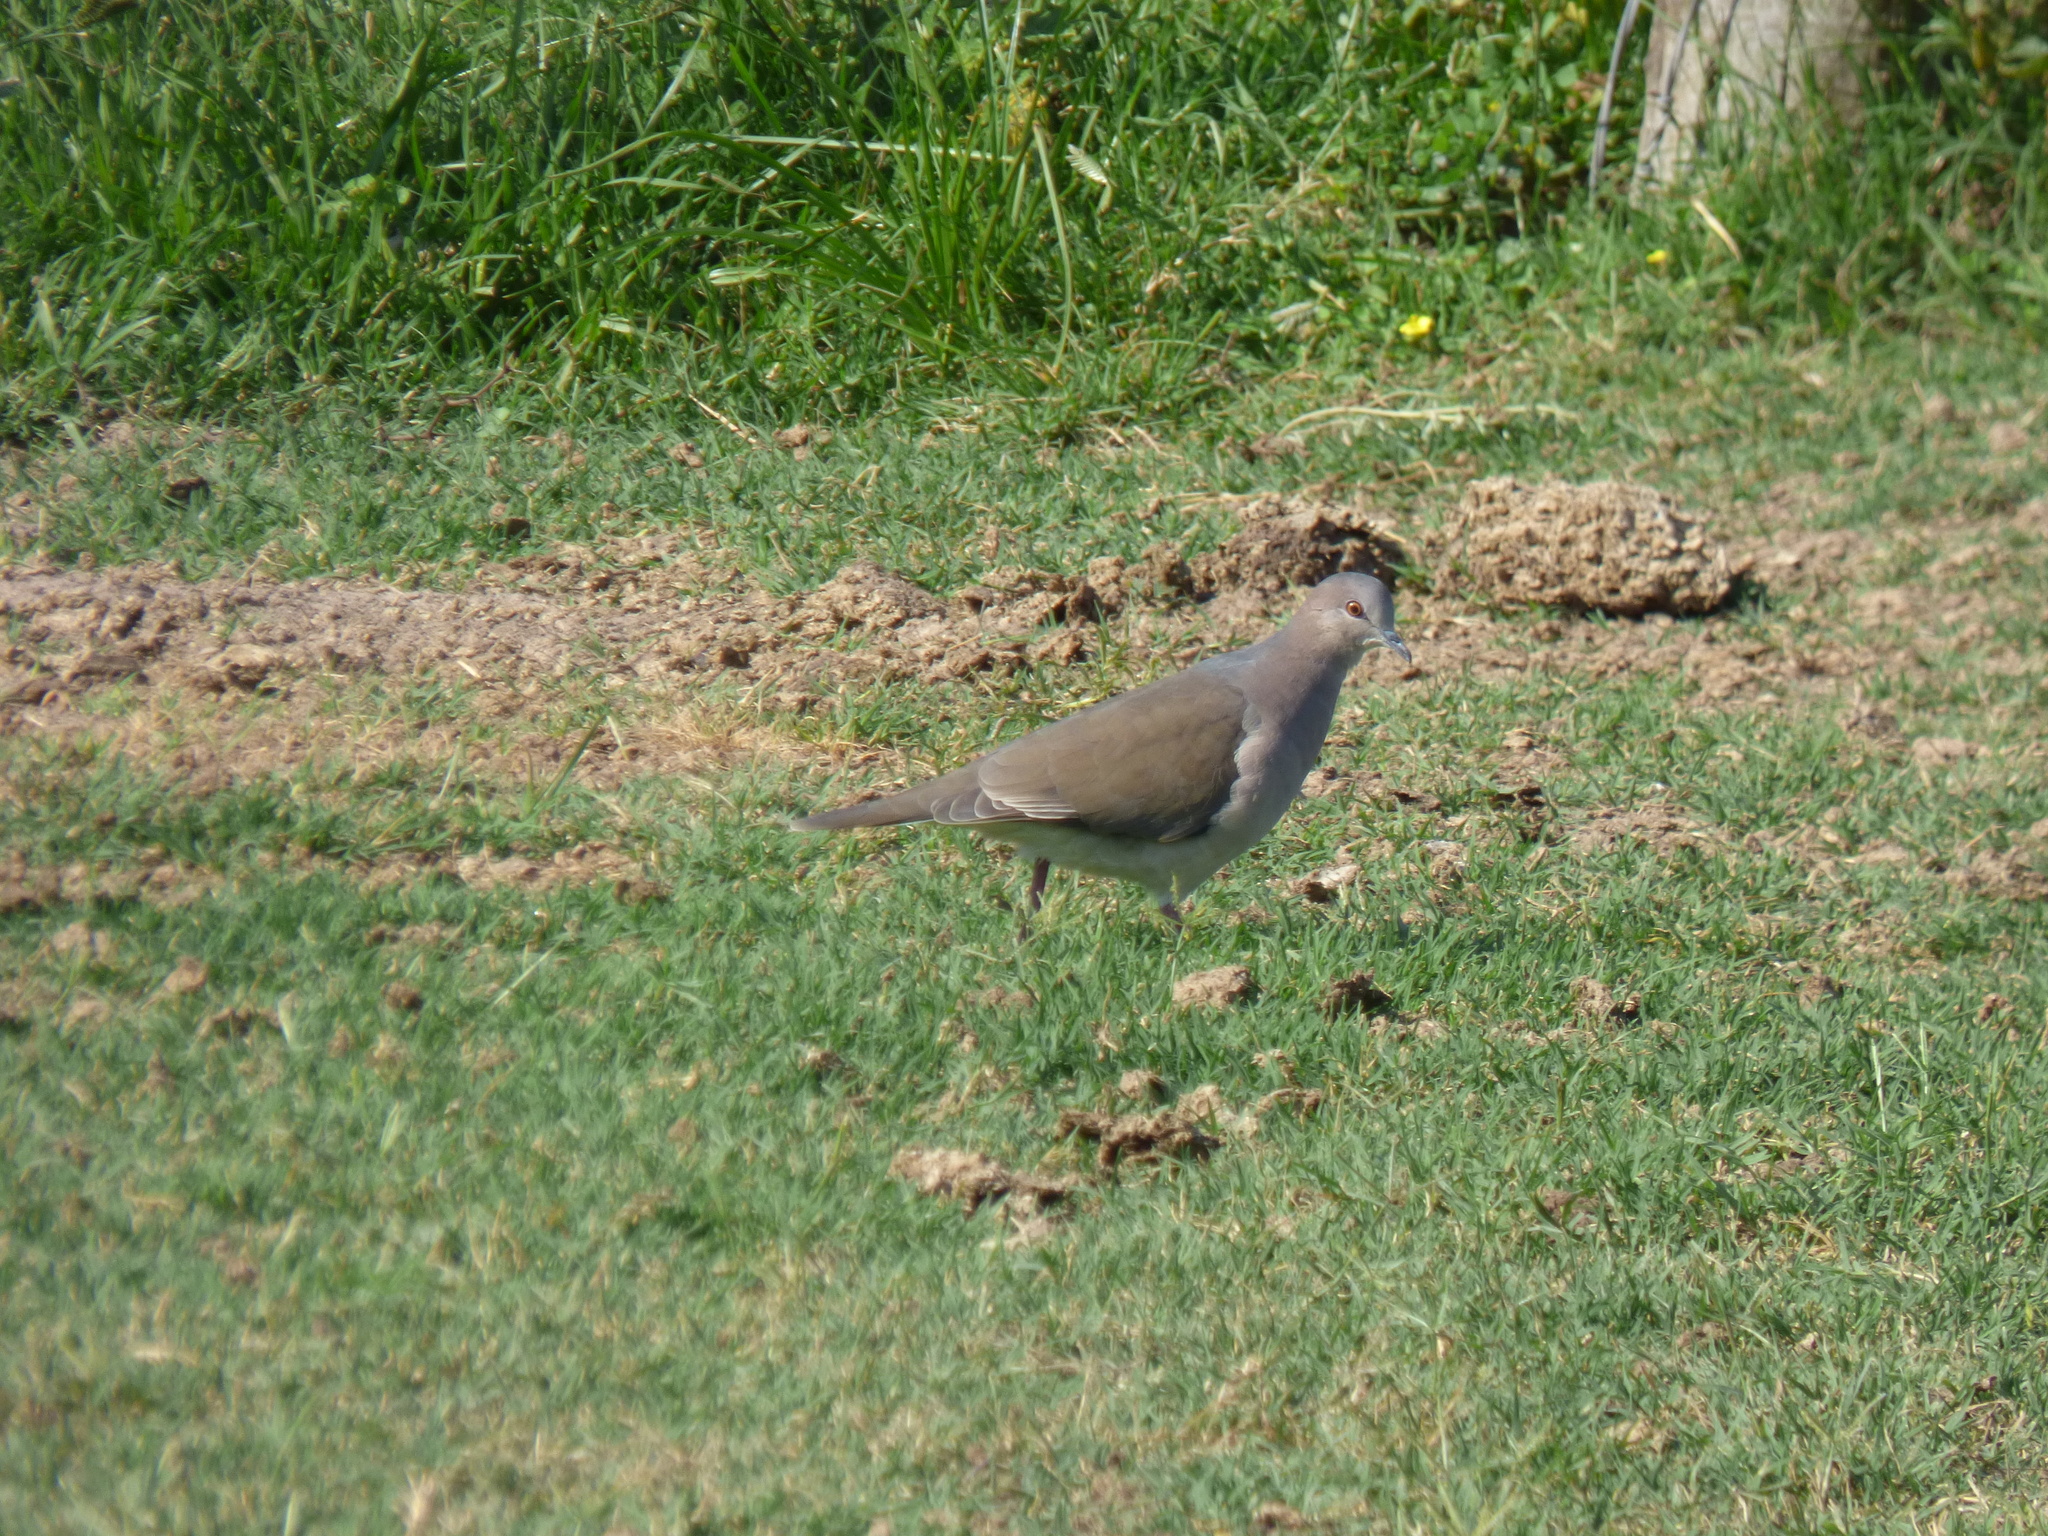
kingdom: Animalia
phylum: Chordata
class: Aves
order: Columbiformes
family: Columbidae
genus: Leptotila
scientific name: Leptotila verreauxi
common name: White-tipped dove
